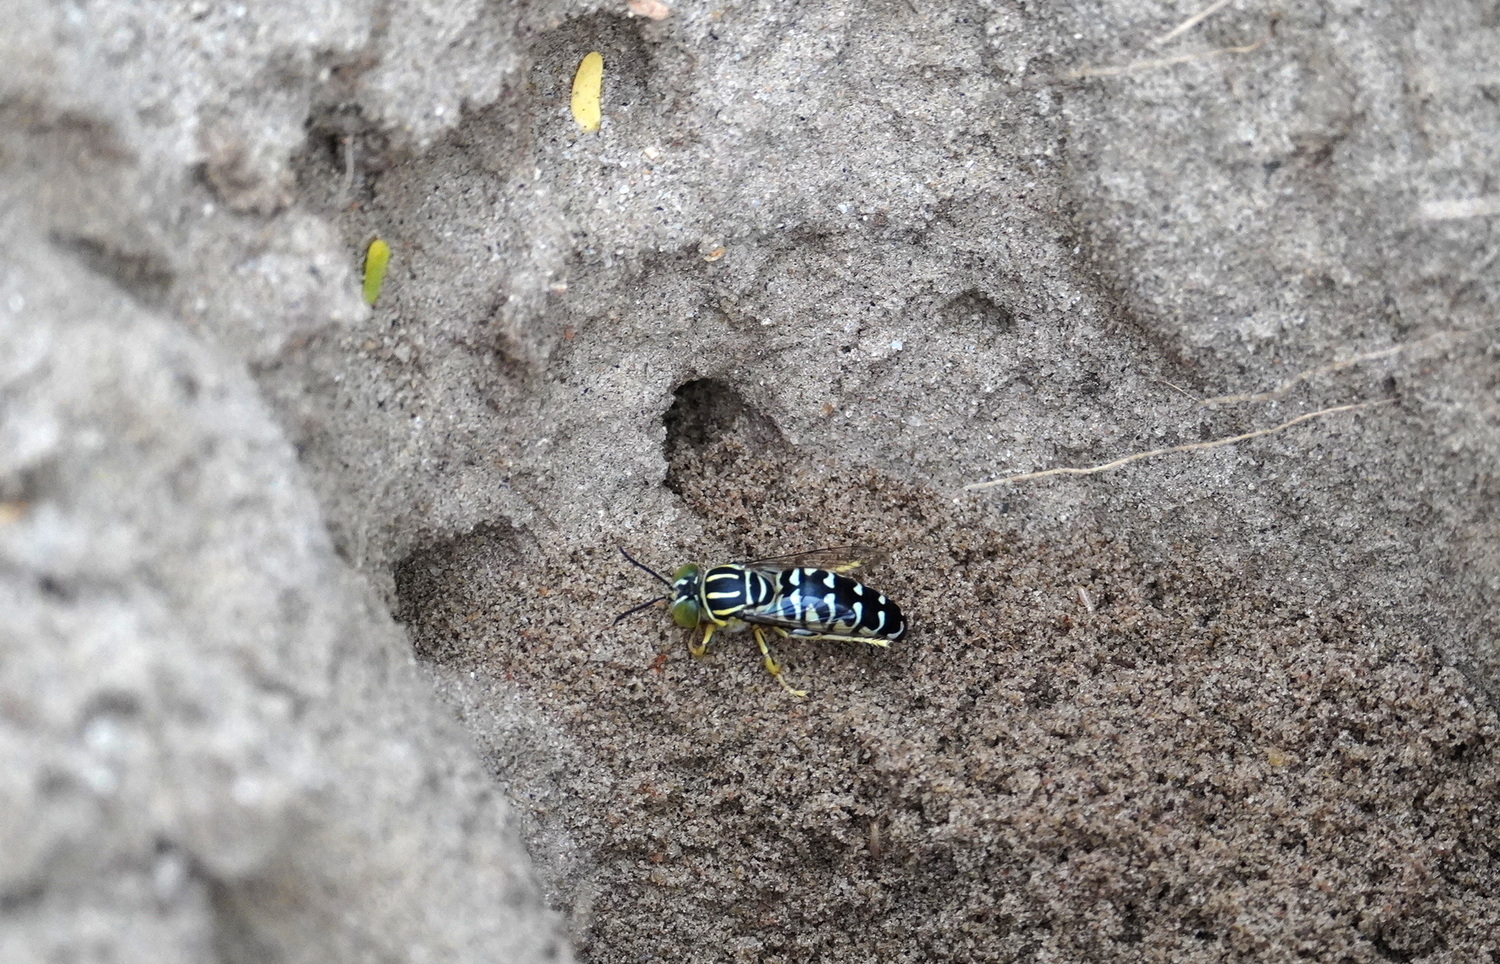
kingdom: Animalia
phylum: Arthropoda
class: Insecta
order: Hymenoptera
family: Crabronidae
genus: Stictia
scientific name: Stictia signata
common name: Sand wasp
